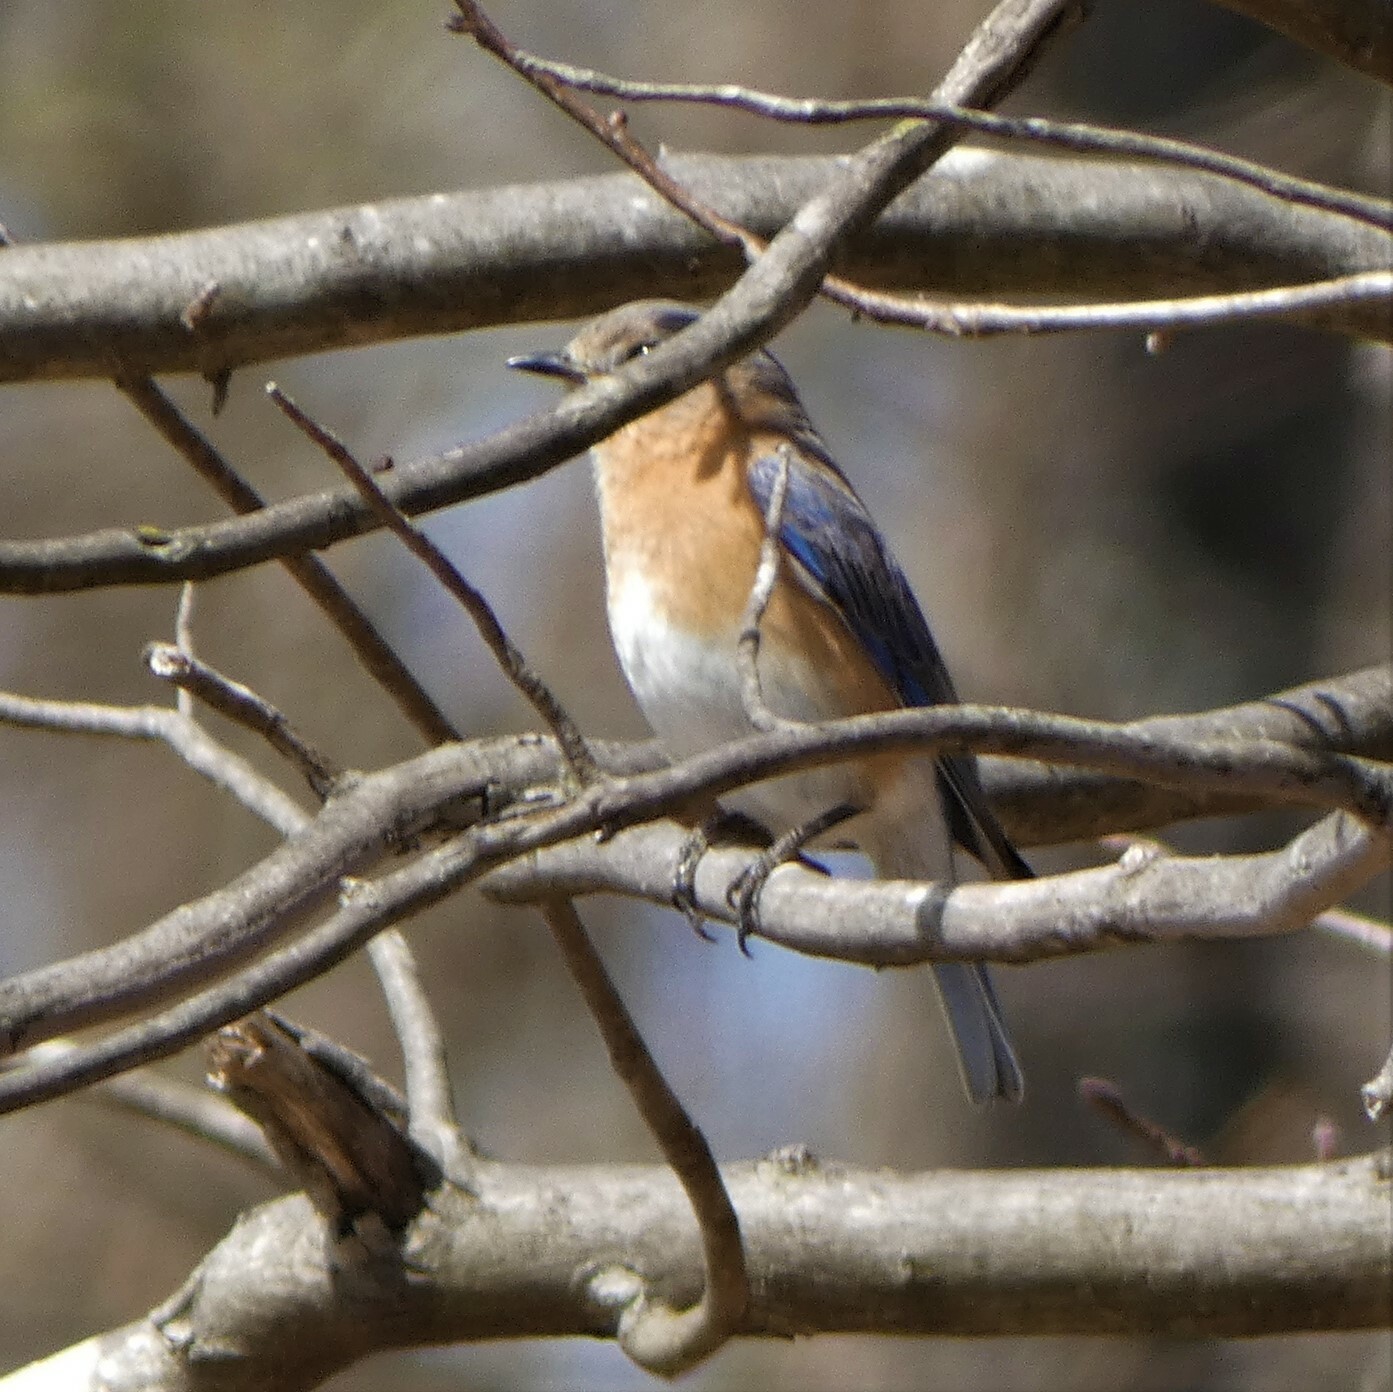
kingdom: Animalia
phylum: Chordata
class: Aves
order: Passeriformes
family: Turdidae
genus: Sialia
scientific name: Sialia sialis
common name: Eastern bluebird
